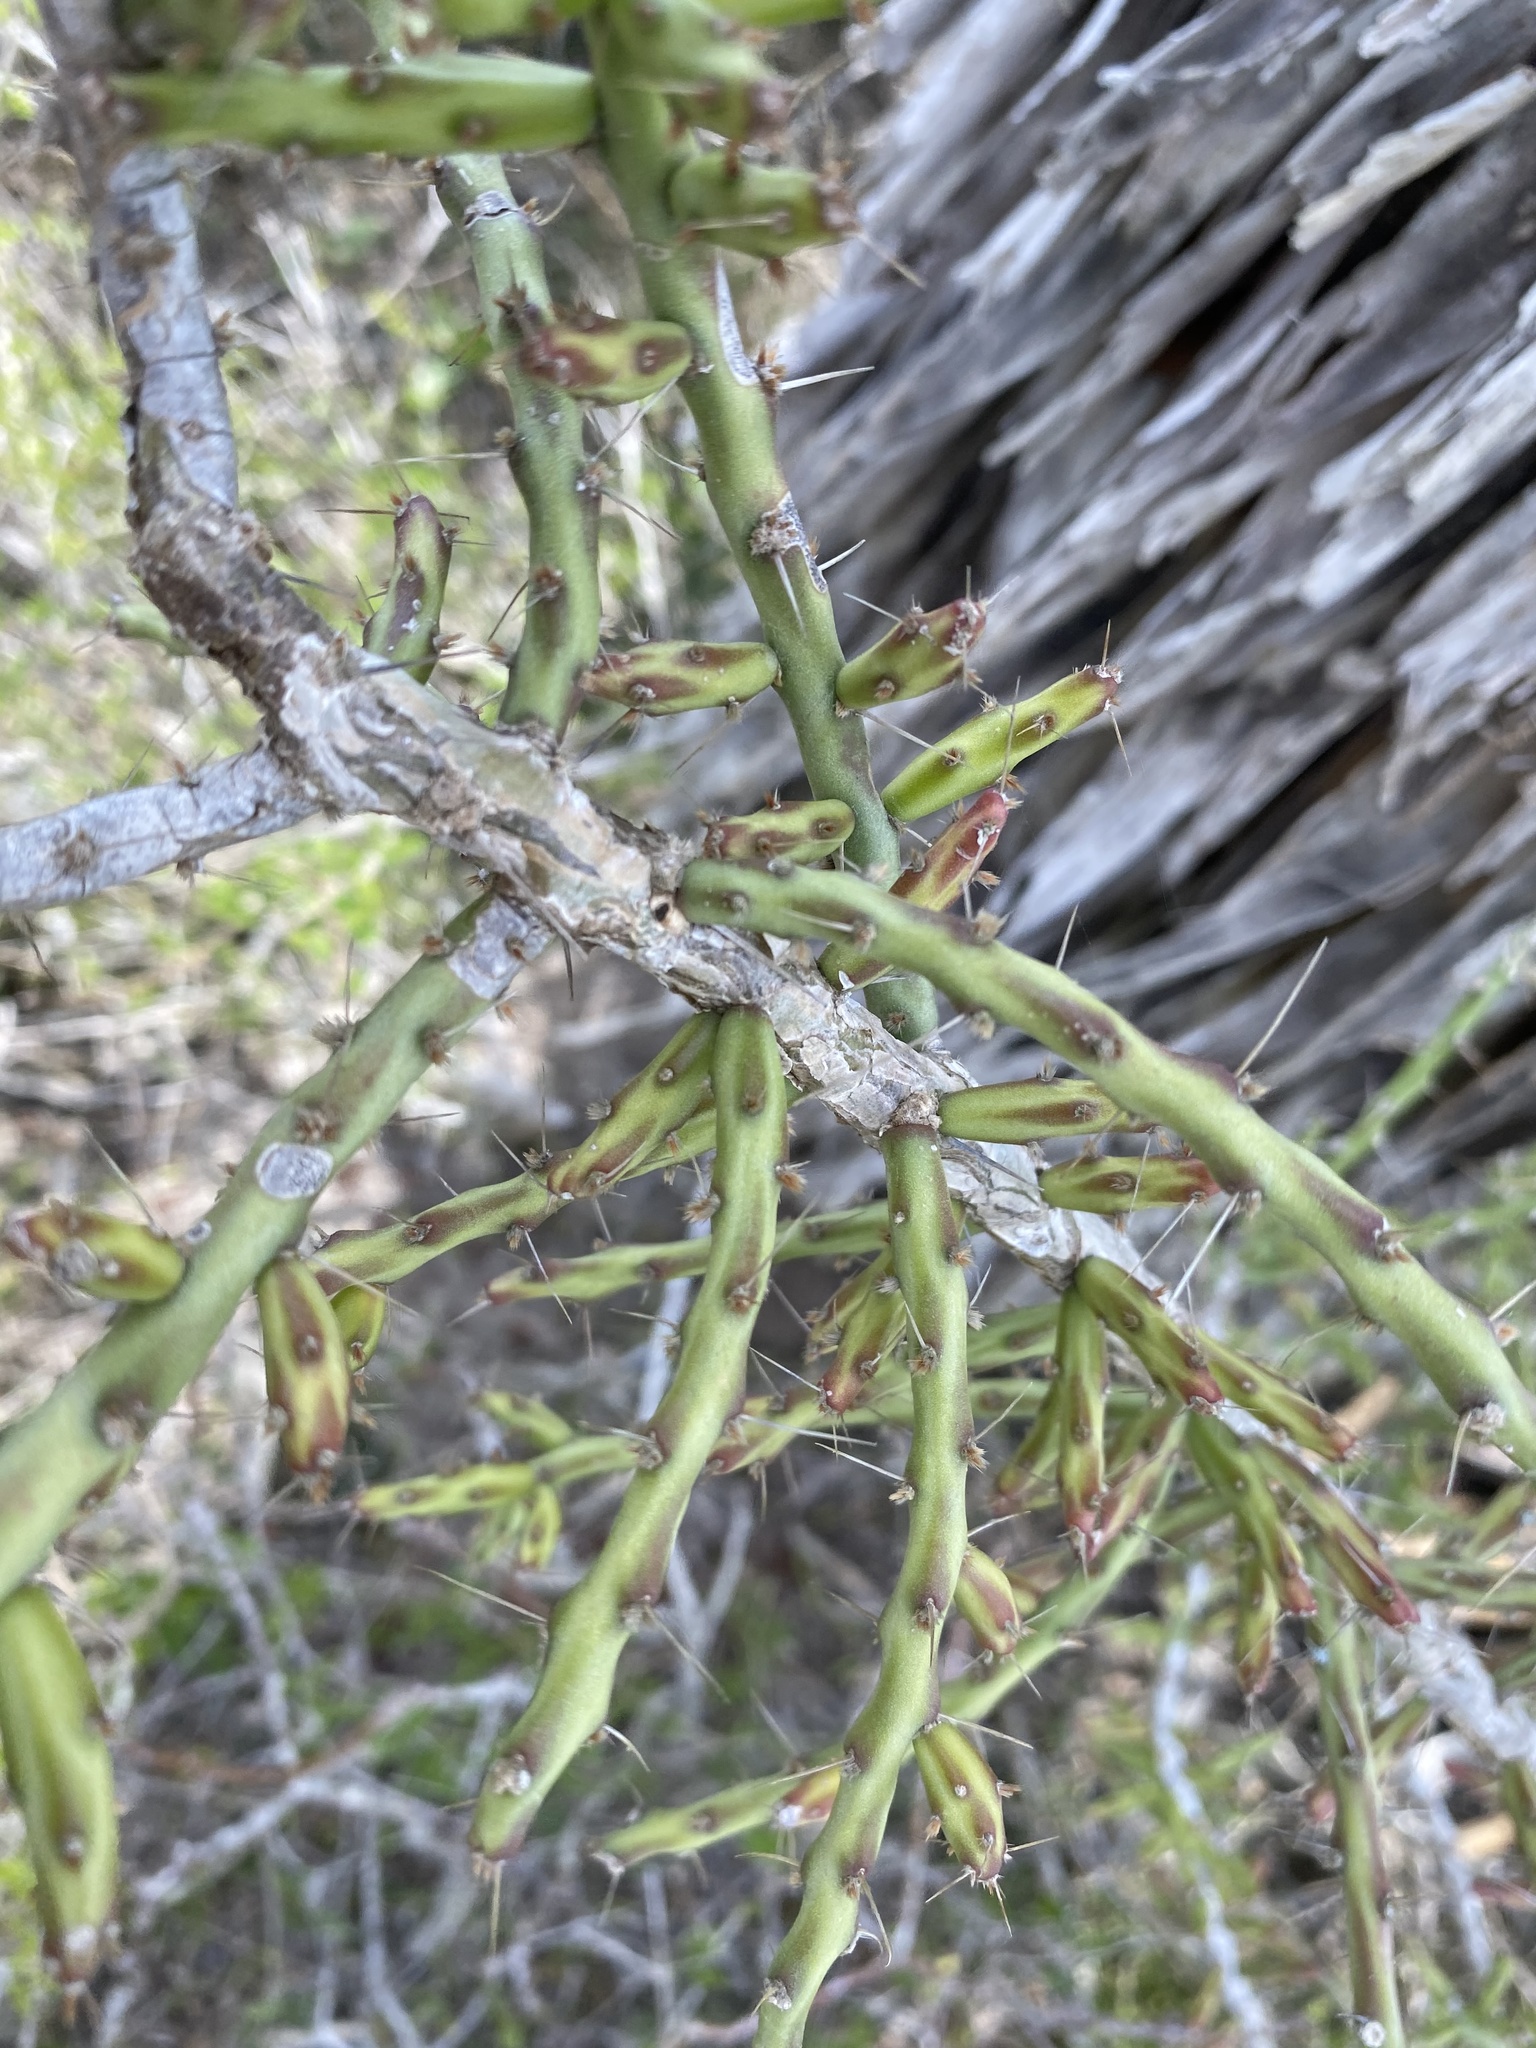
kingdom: Plantae
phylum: Tracheophyta
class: Magnoliopsida
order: Caryophyllales
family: Cactaceae
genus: Cylindropuntia
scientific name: Cylindropuntia leptocaulis
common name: Christmas cactus
